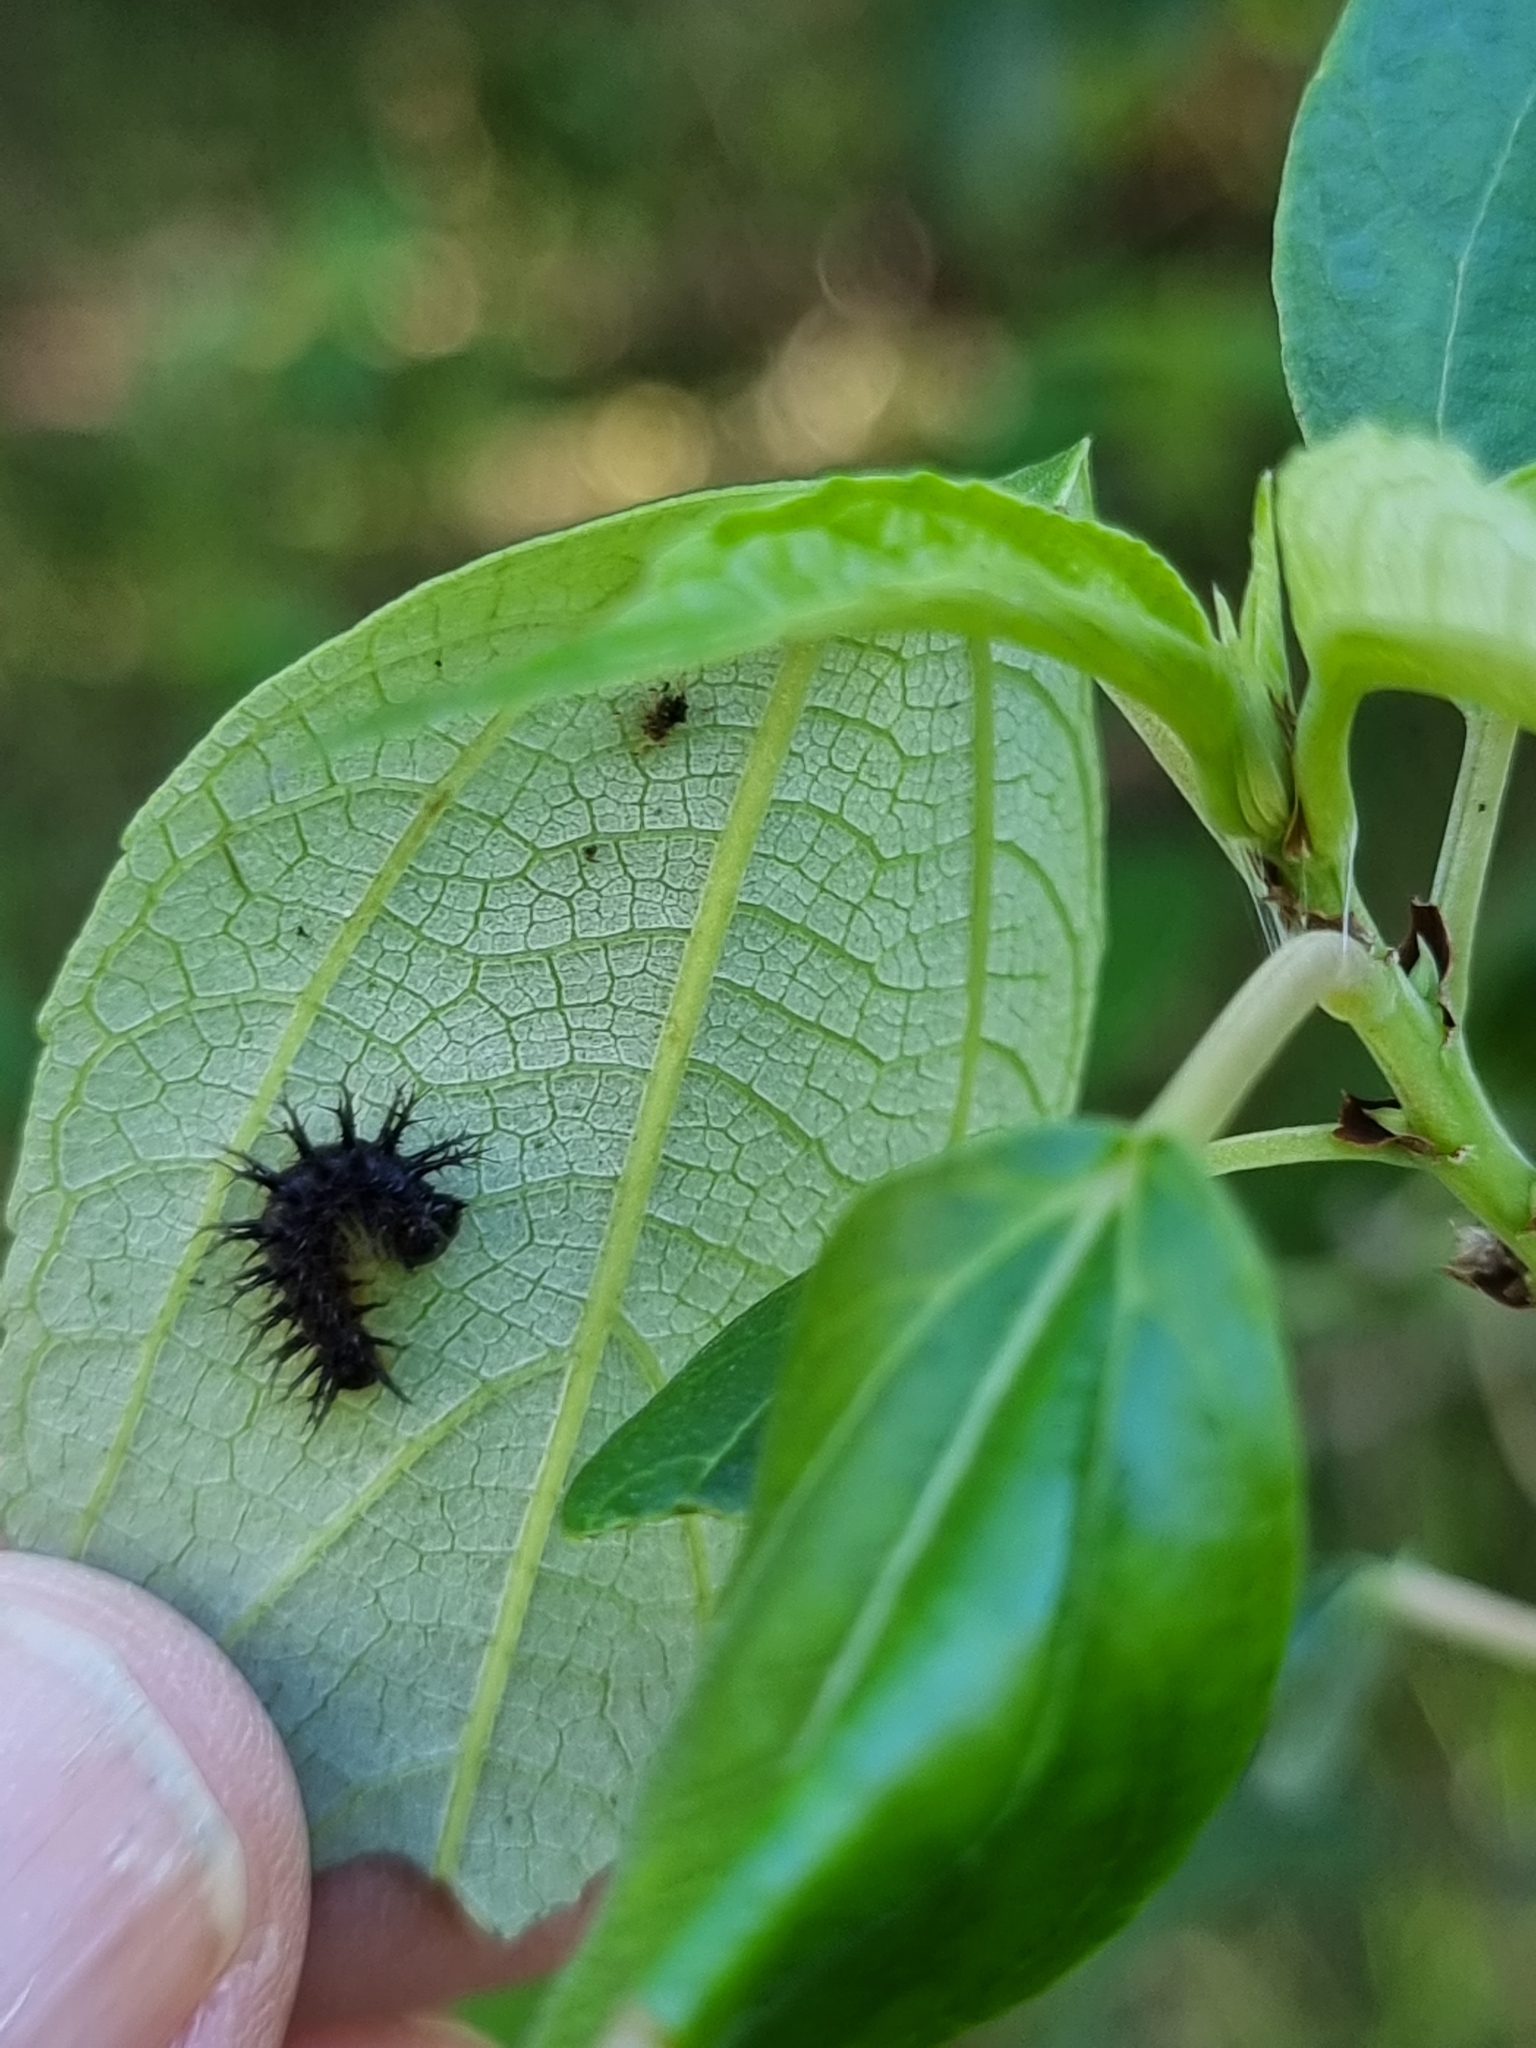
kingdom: Animalia
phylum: Arthropoda
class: Insecta
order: Lepidoptera
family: Nymphalidae
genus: Mynes
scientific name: Mynes geoffroyi
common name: Jezebel nymph
